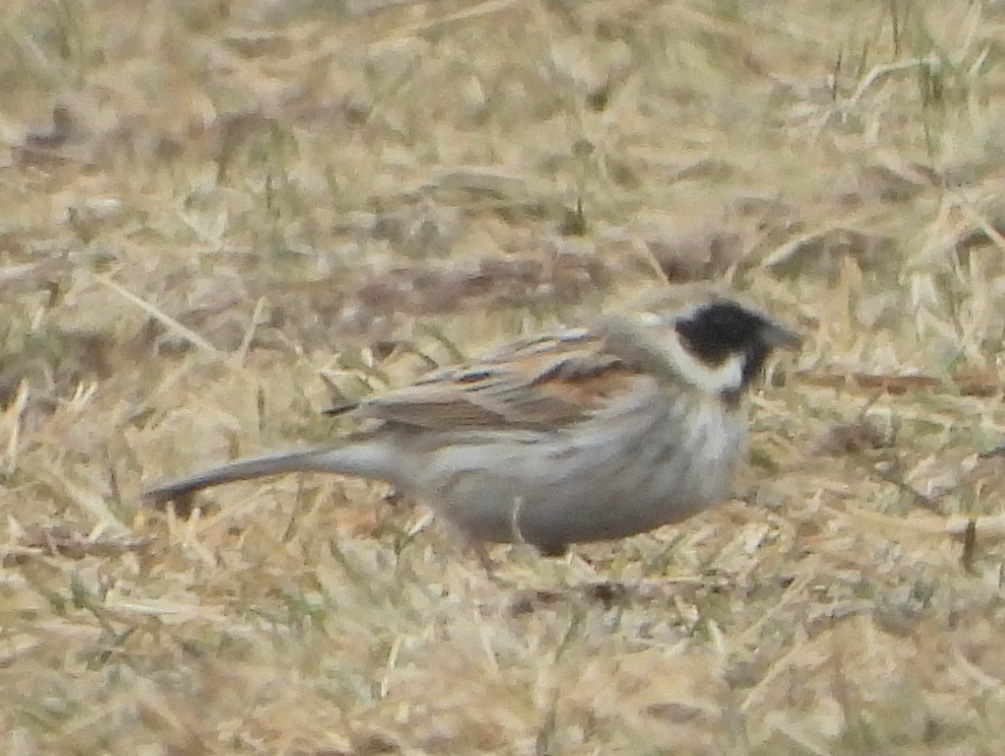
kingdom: Animalia
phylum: Chordata
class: Aves
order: Passeriformes
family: Emberizidae
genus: Emberiza
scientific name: Emberiza schoeniclus
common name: Reed bunting
